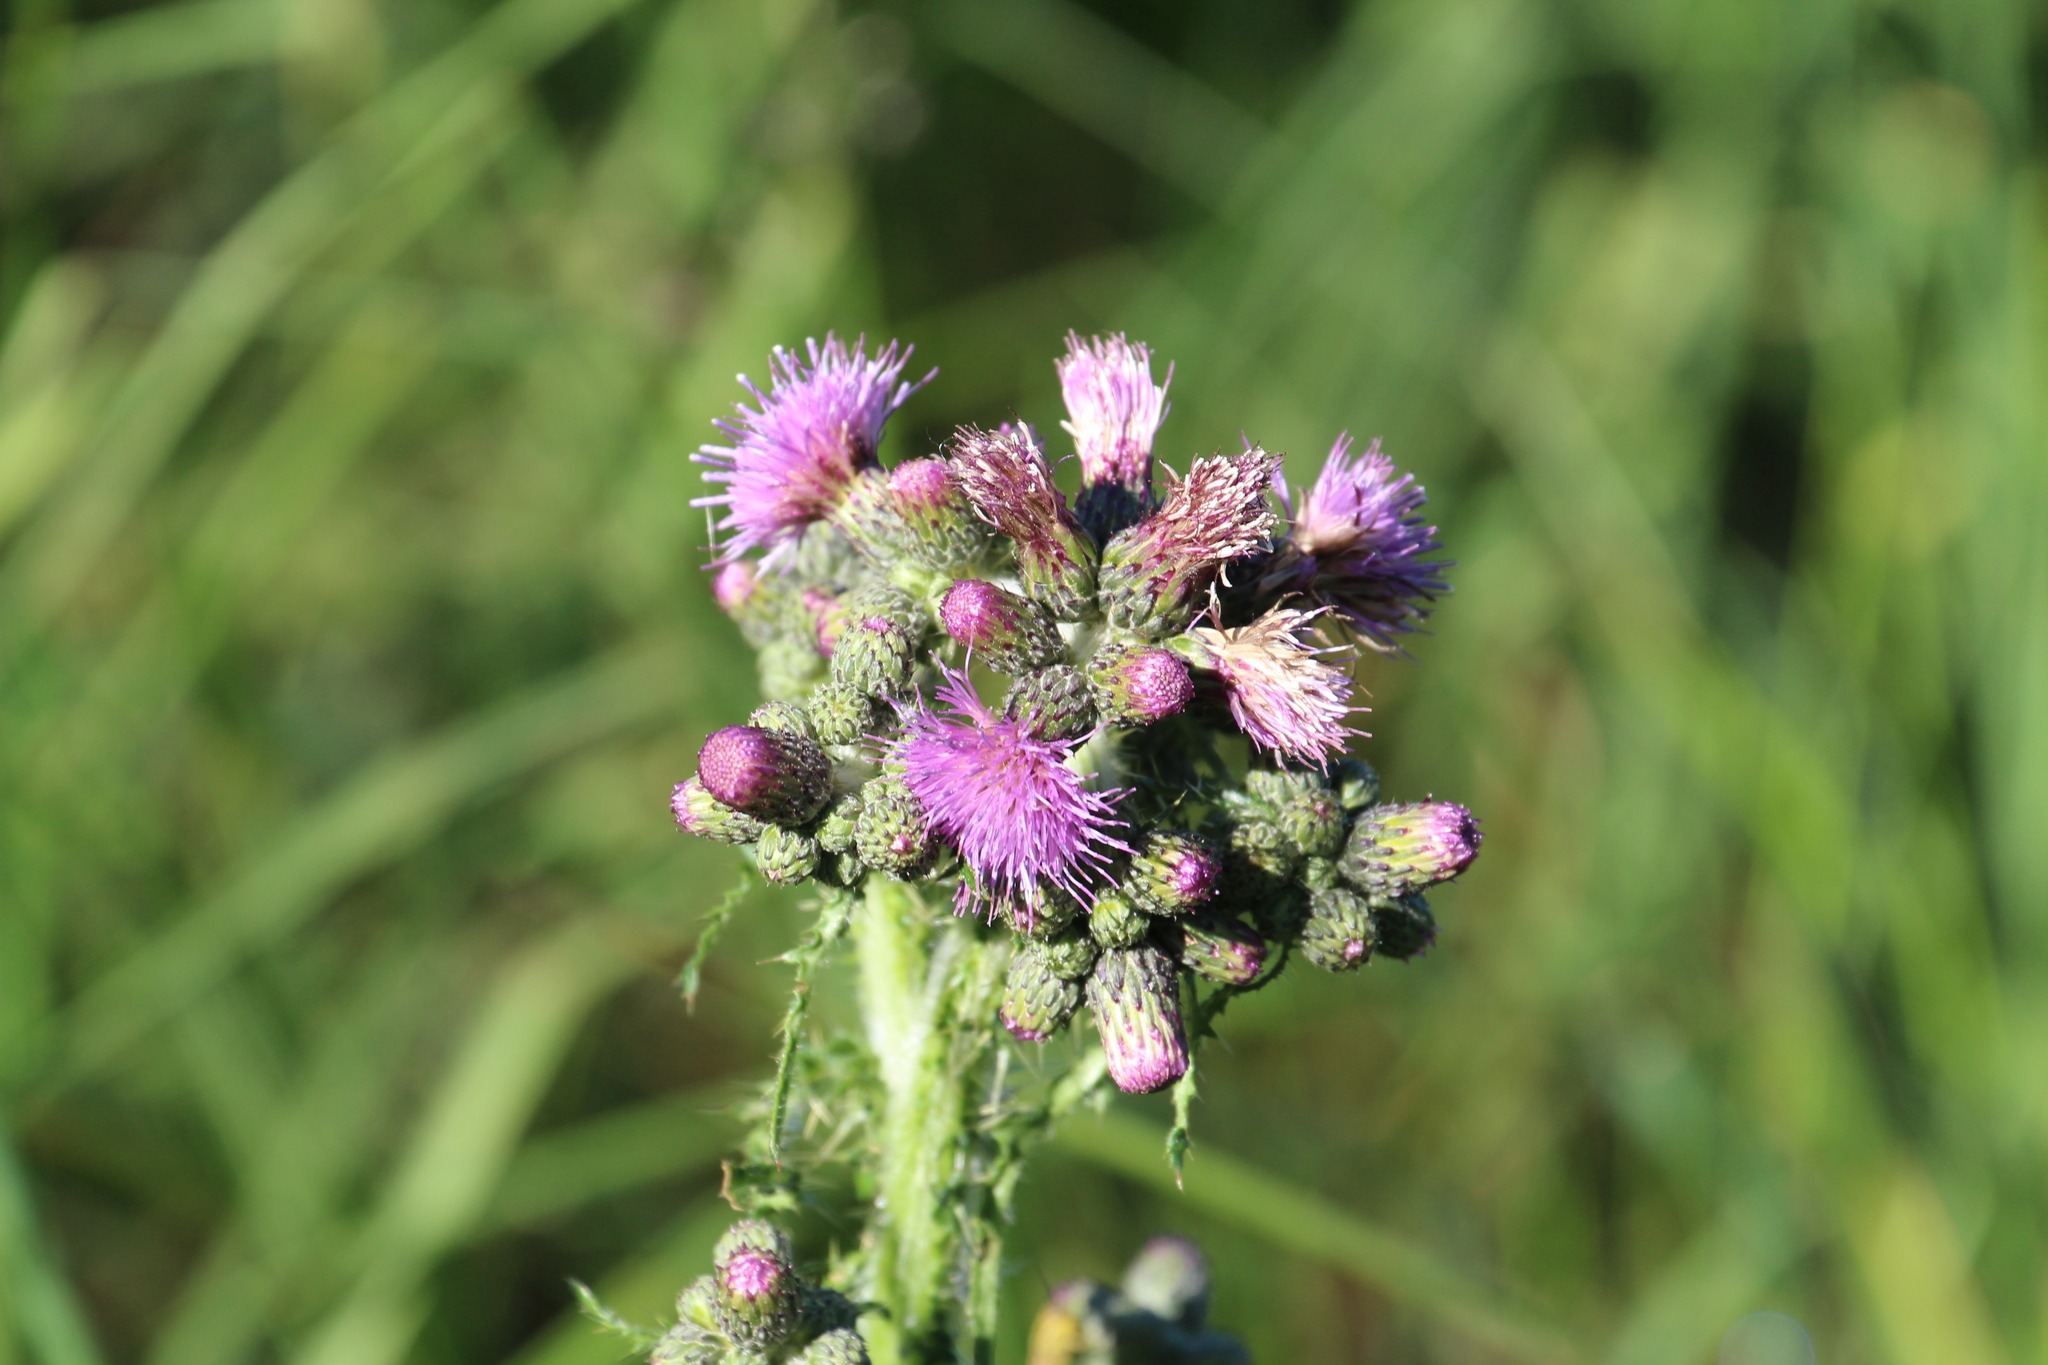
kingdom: Plantae
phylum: Tracheophyta
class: Magnoliopsida
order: Asterales
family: Asteraceae
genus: Cirsium
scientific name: Cirsium palustre
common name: Marsh thistle
